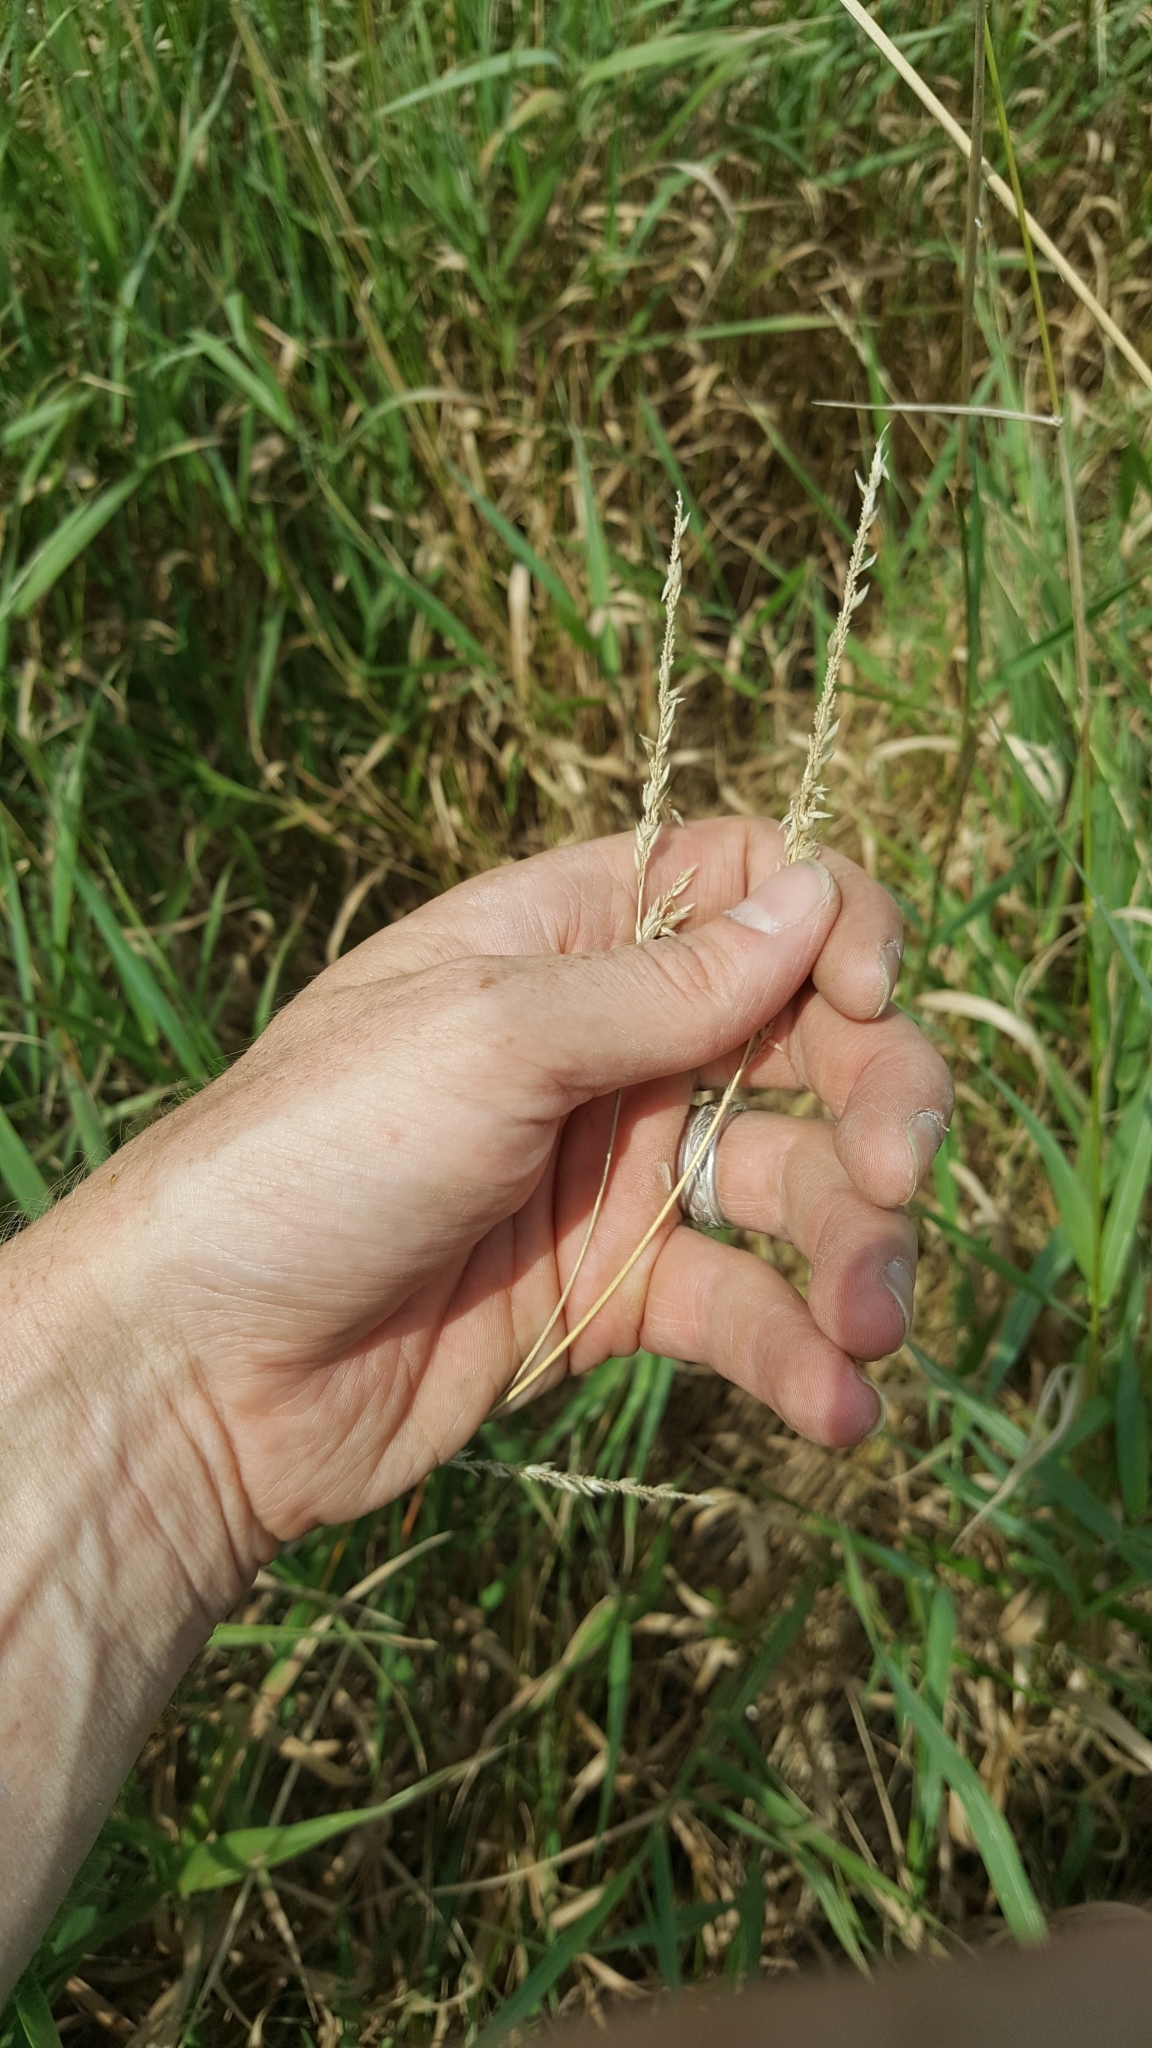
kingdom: Plantae
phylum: Tracheophyta
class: Liliopsida
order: Poales
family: Poaceae
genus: Phalaris
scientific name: Phalaris arundinacea
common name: Reed canary-grass
